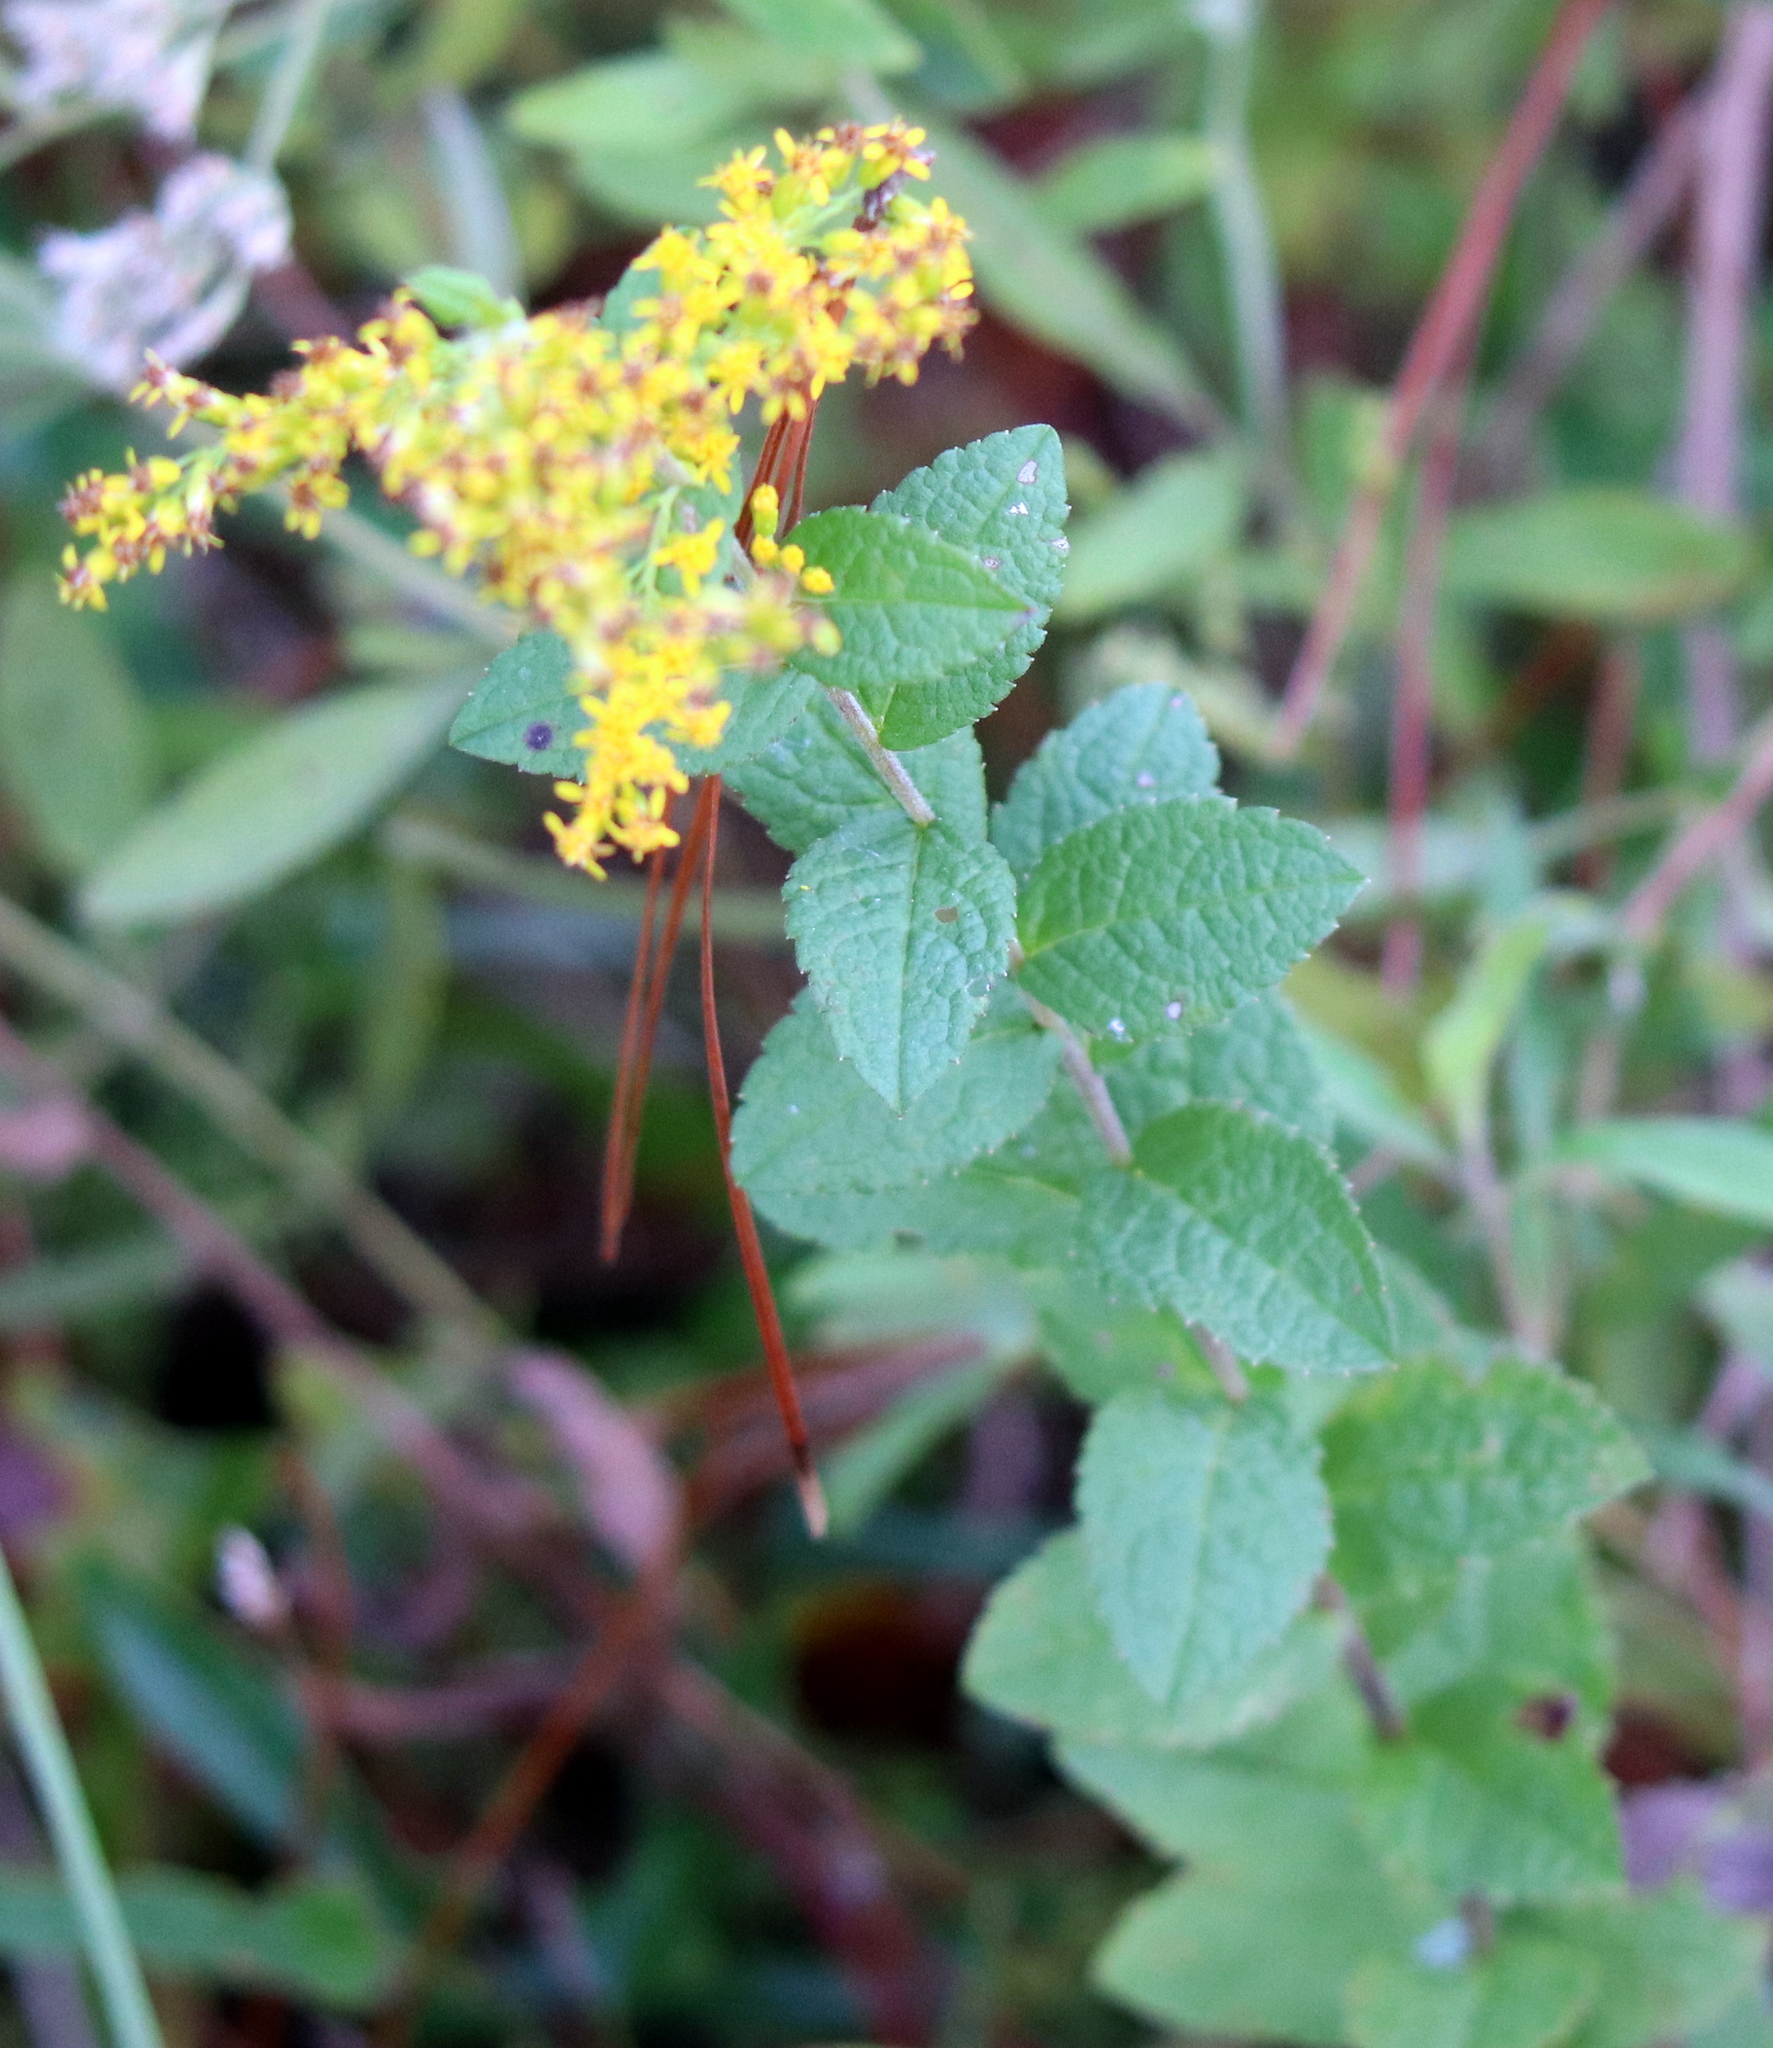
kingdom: Plantae
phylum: Tracheophyta
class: Magnoliopsida
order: Asterales
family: Asteraceae
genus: Solidago
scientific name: Solidago rugosa
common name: Rough-stemmed goldenrod
